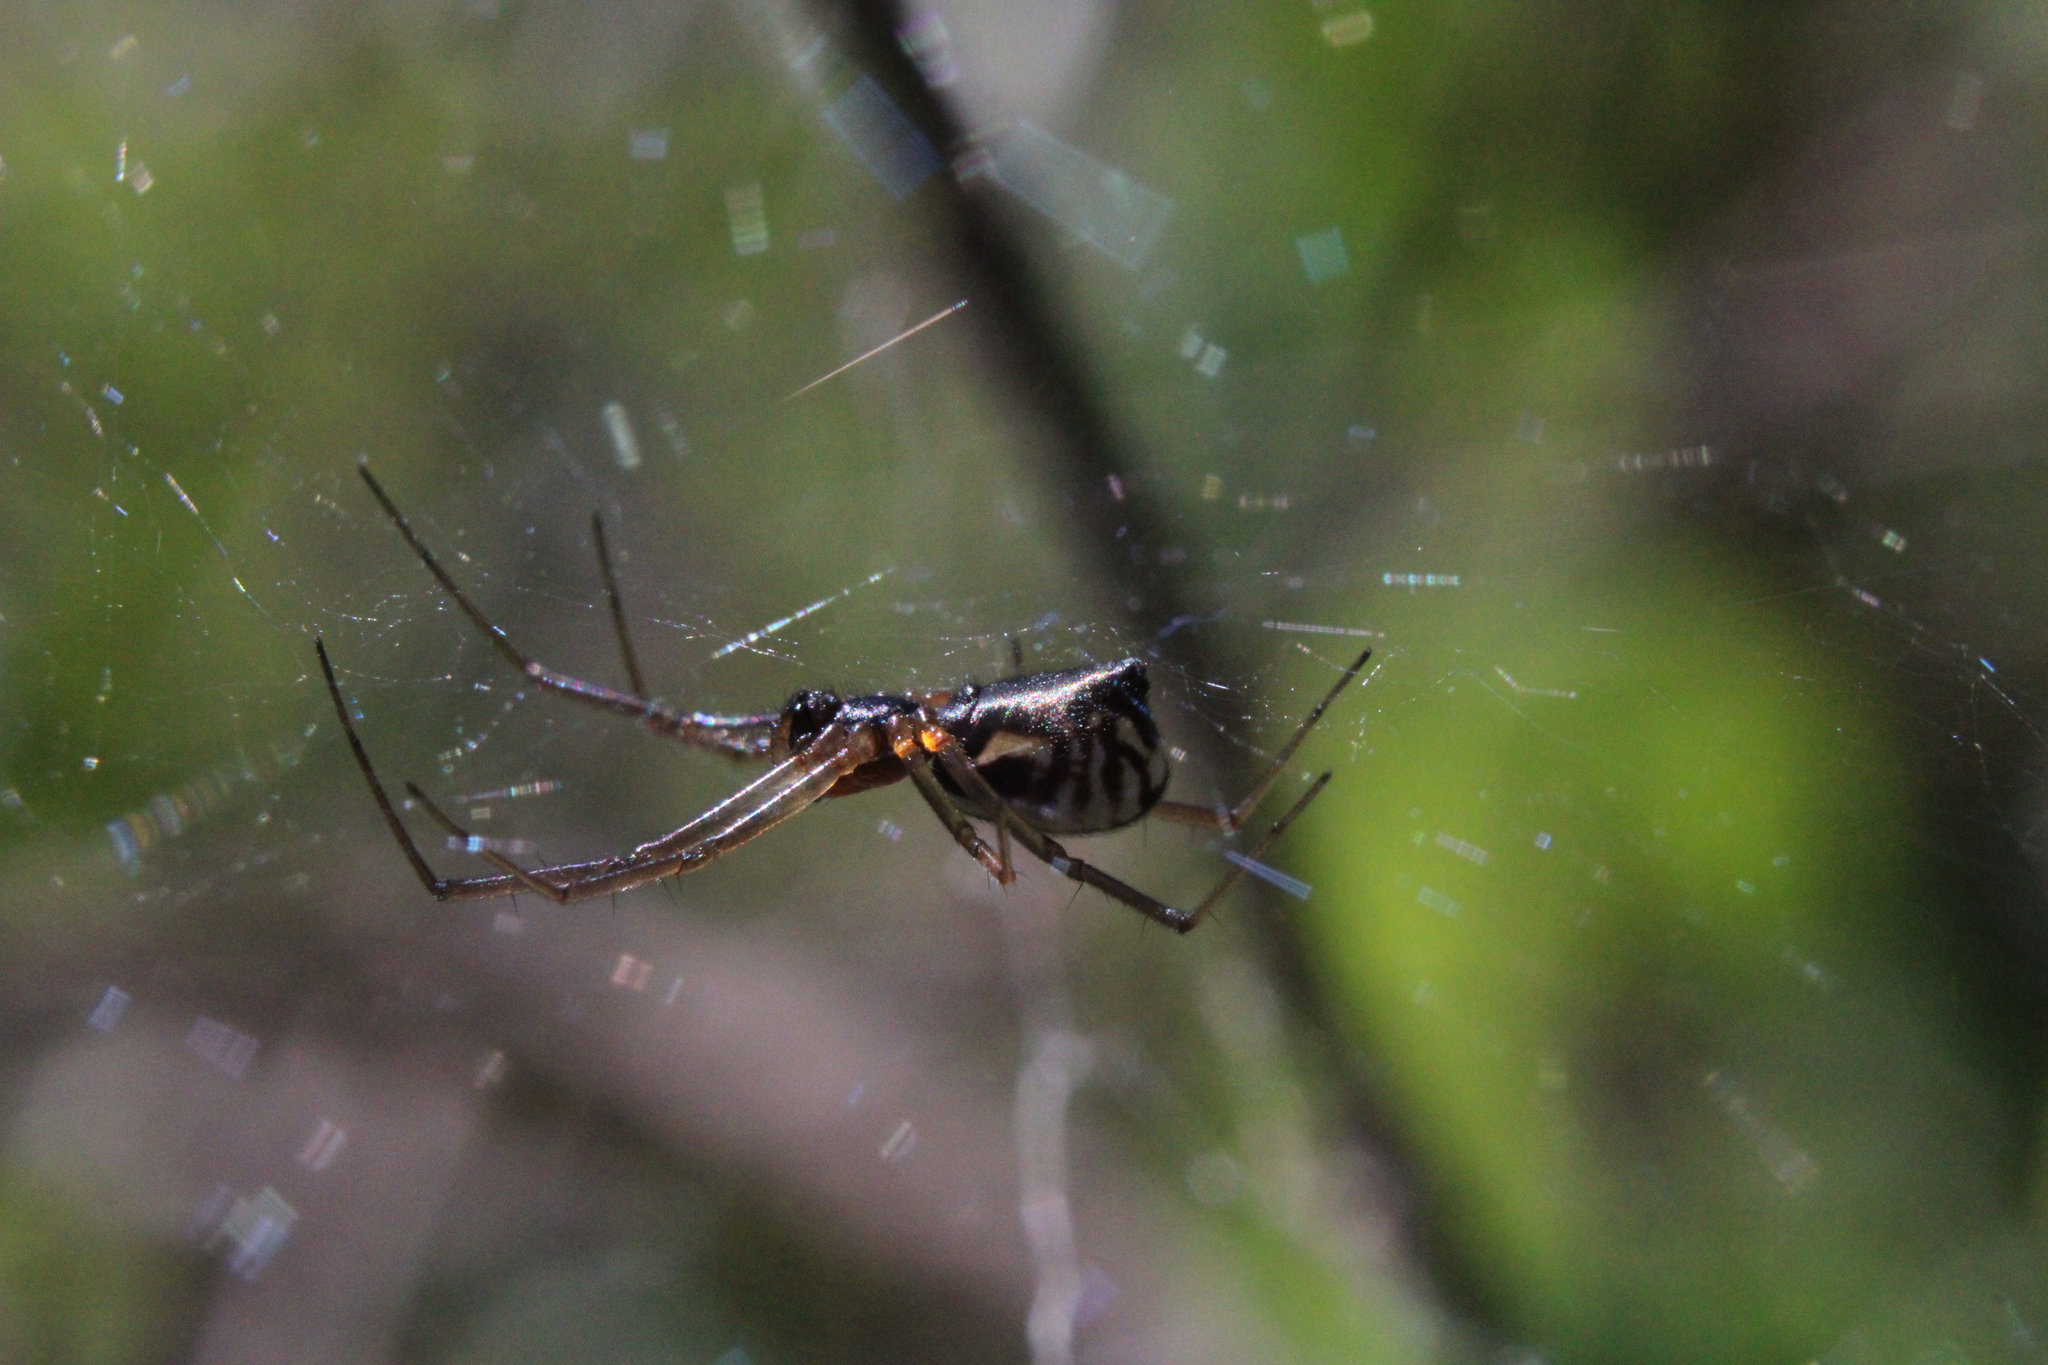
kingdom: Animalia
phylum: Arthropoda
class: Arachnida
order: Araneae
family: Linyphiidae
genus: Frontinella
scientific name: Frontinella pyramitela
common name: Bowl-and-doily spider
